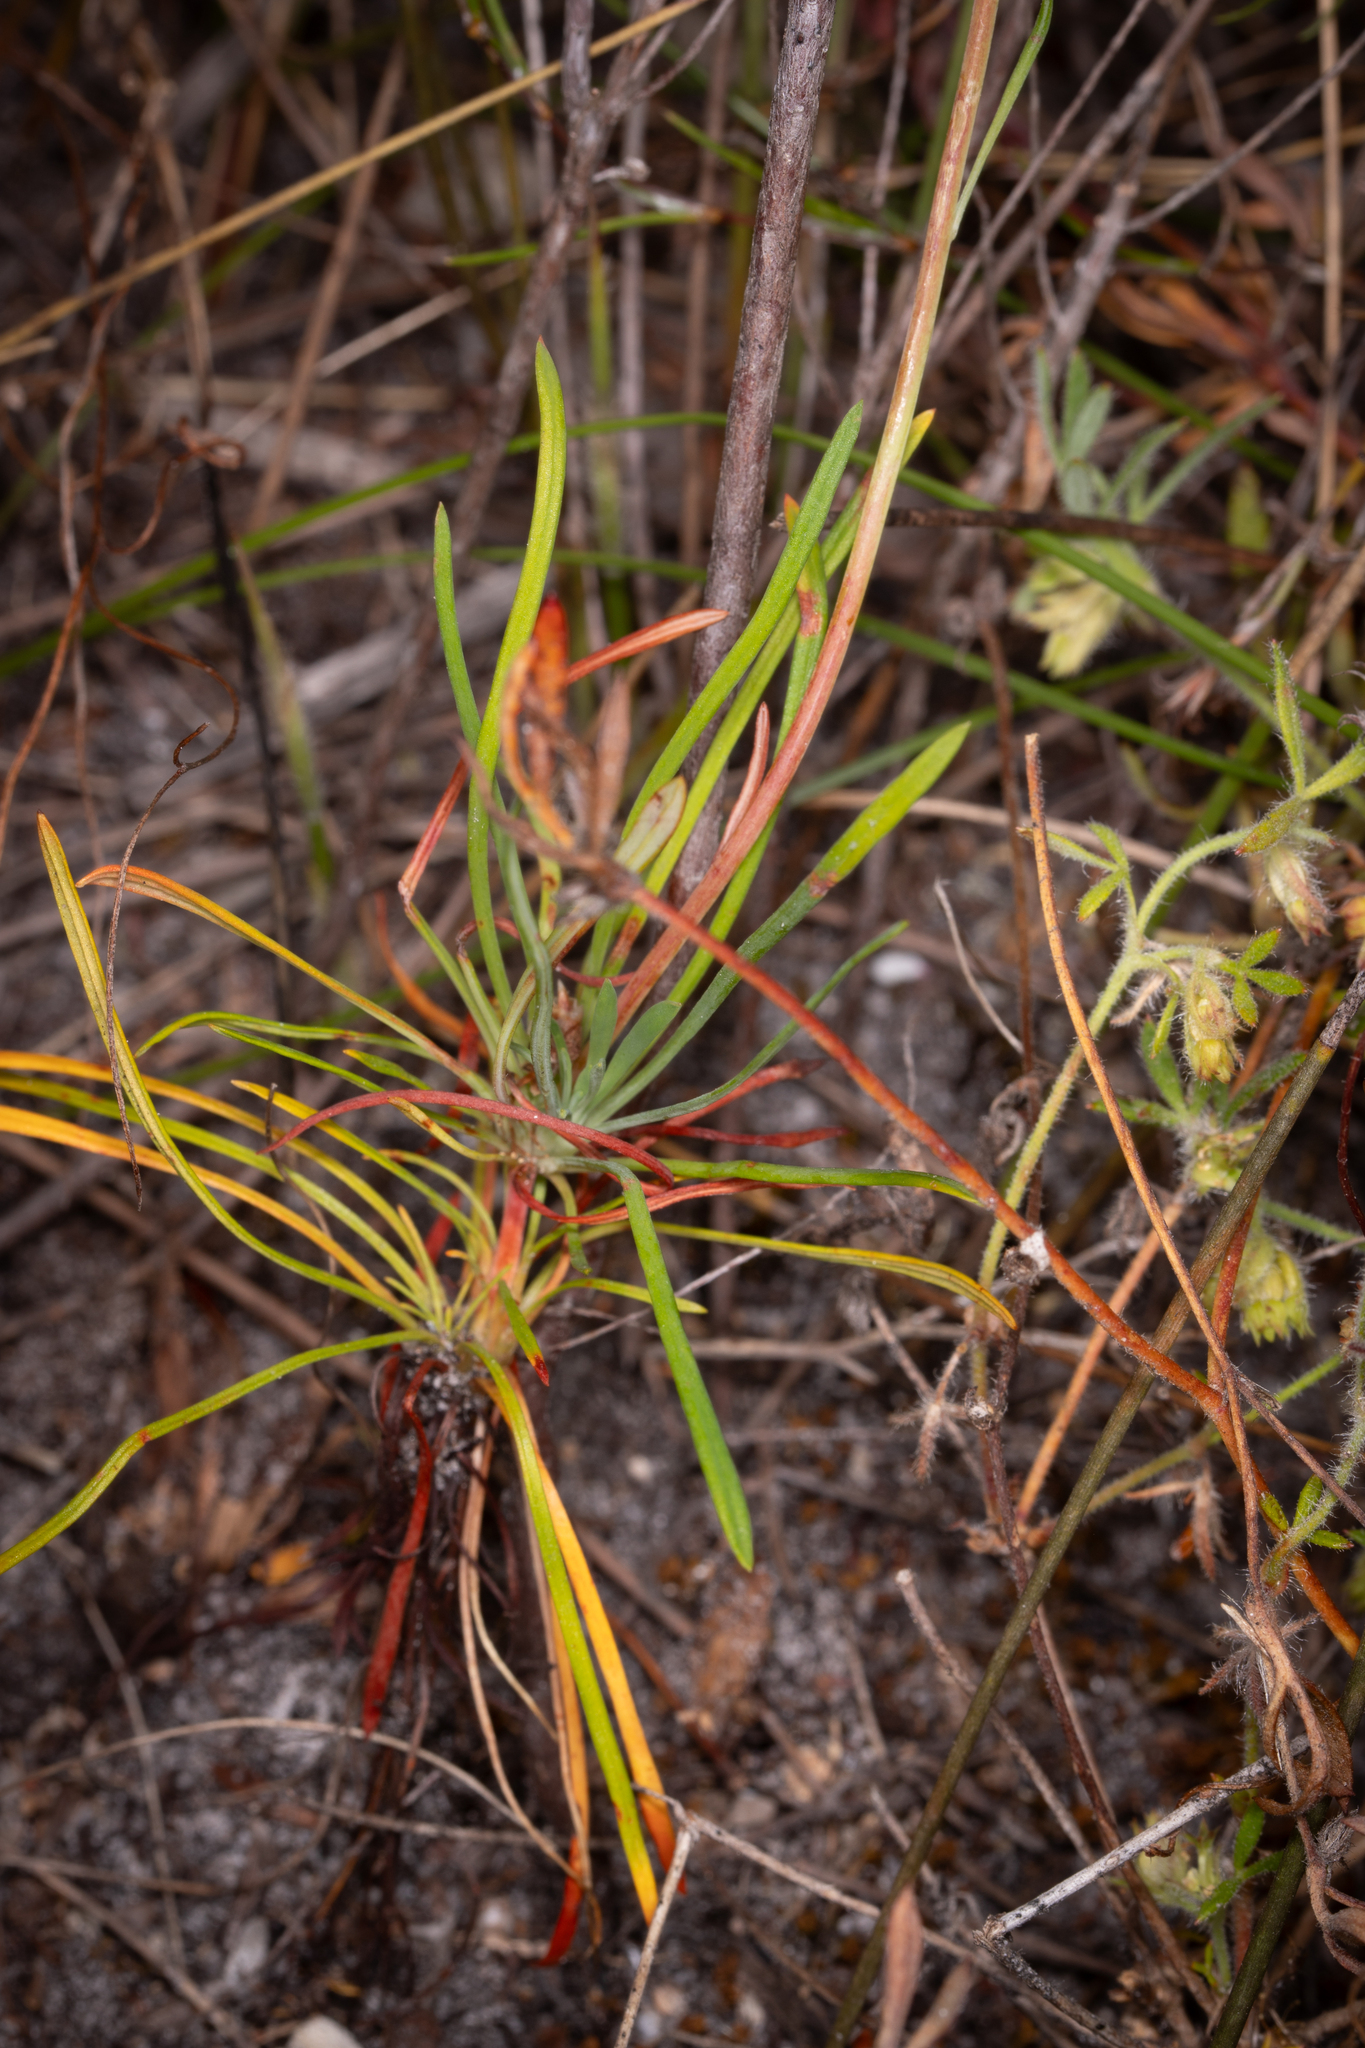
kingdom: Plantae
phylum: Tracheophyta
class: Magnoliopsida
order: Asterales
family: Stylidiaceae
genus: Stylidium
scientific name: Stylidium angustifolium
